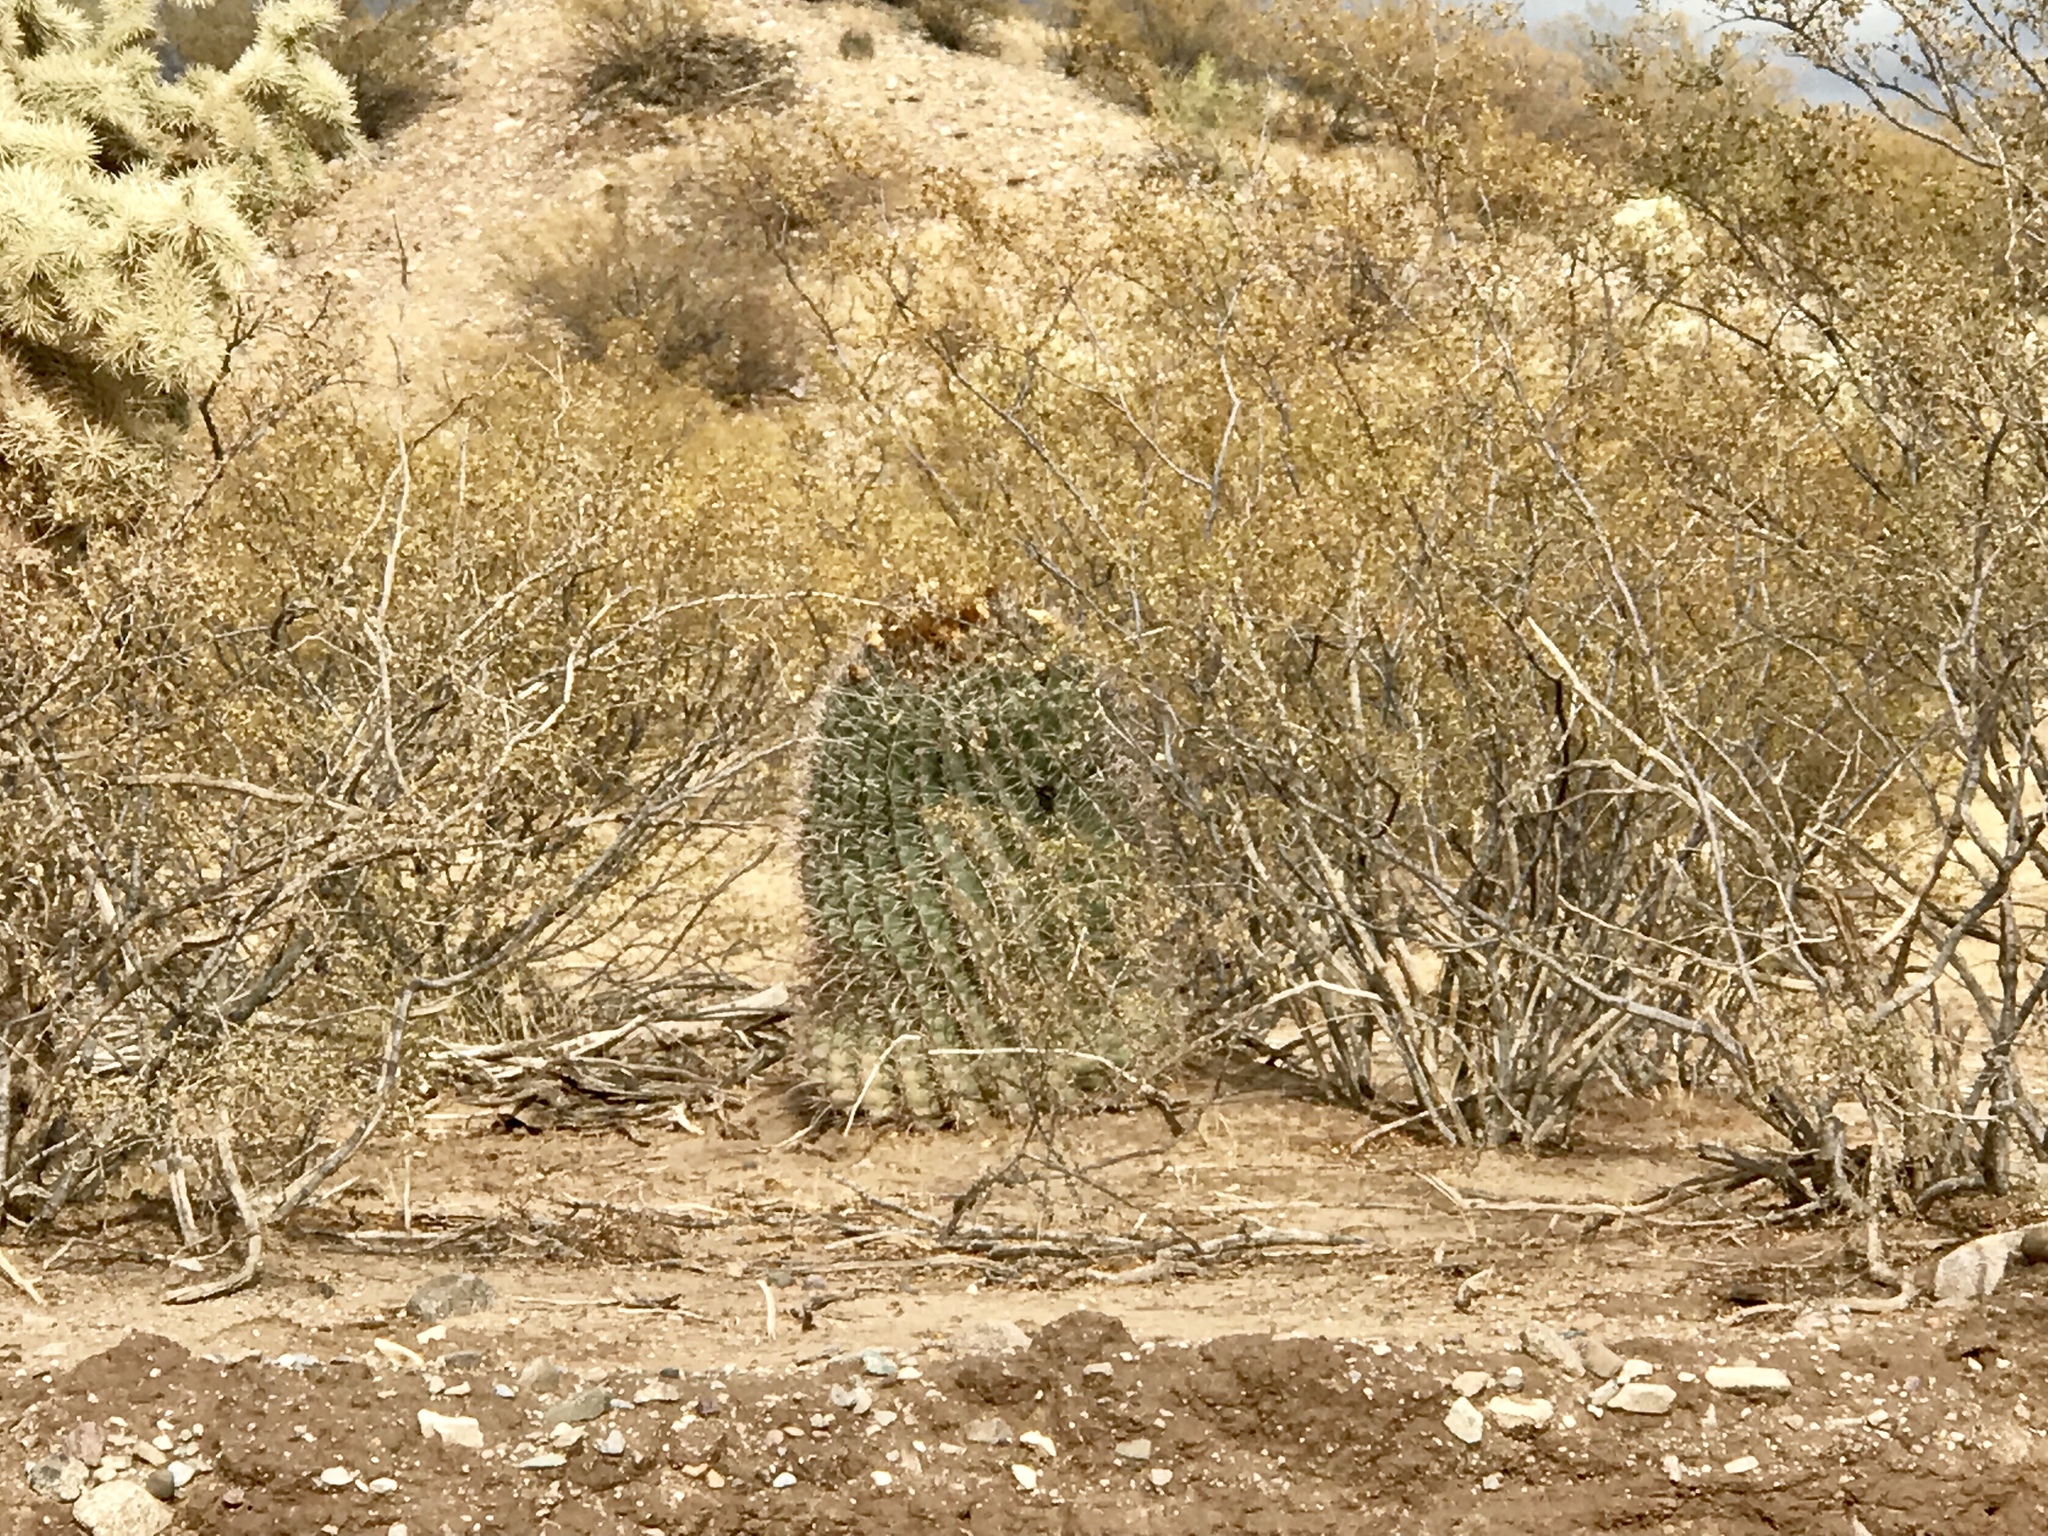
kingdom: Plantae
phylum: Tracheophyta
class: Magnoliopsida
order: Caryophyllales
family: Cactaceae
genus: Ferocactus
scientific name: Ferocactus wislizeni
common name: Candy barrel cactus
